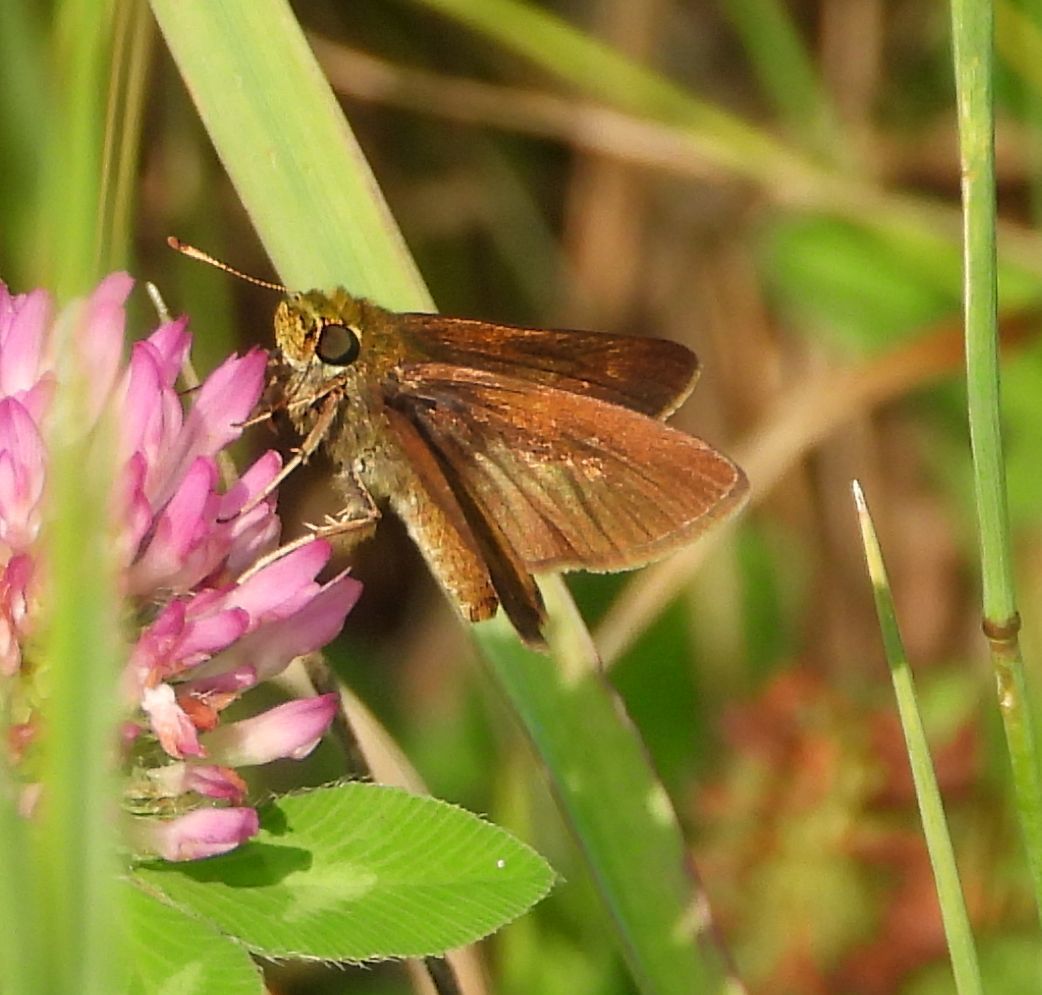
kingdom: Animalia
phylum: Arthropoda
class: Insecta
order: Lepidoptera
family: Hesperiidae
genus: Euphyes
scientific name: Euphyes vestris
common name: Dun skipper
